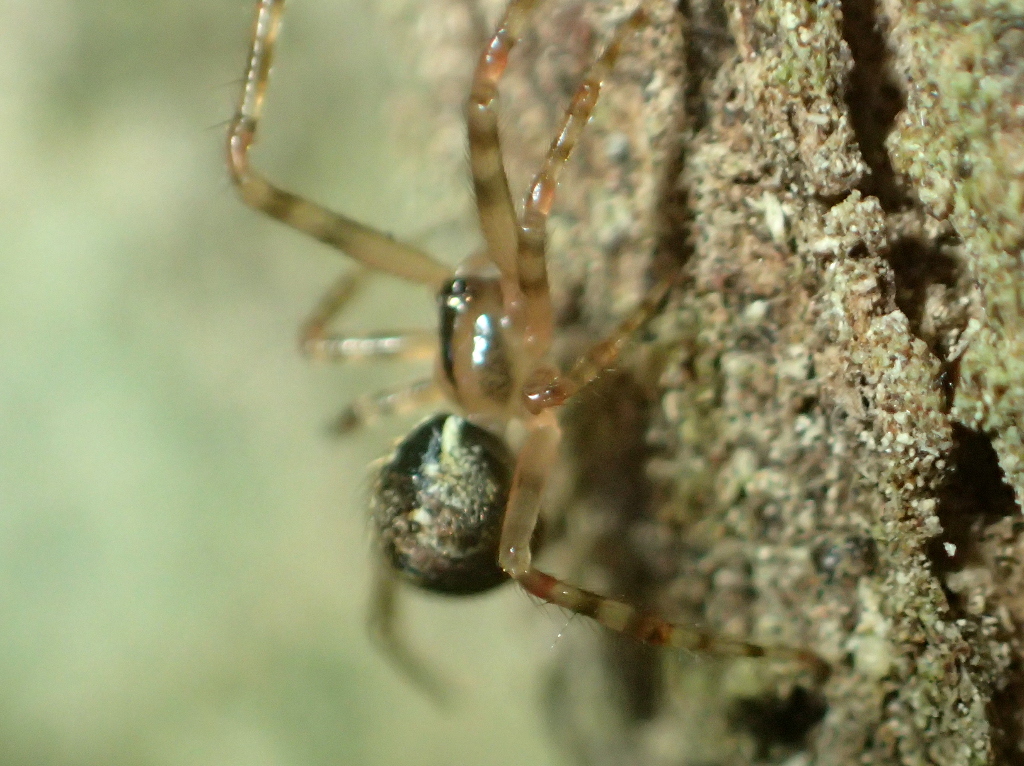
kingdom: Animalia
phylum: Arthropoda
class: Arachnida
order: Araneae
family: Theridiidae
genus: Theridion
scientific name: Theridion zantholabio
